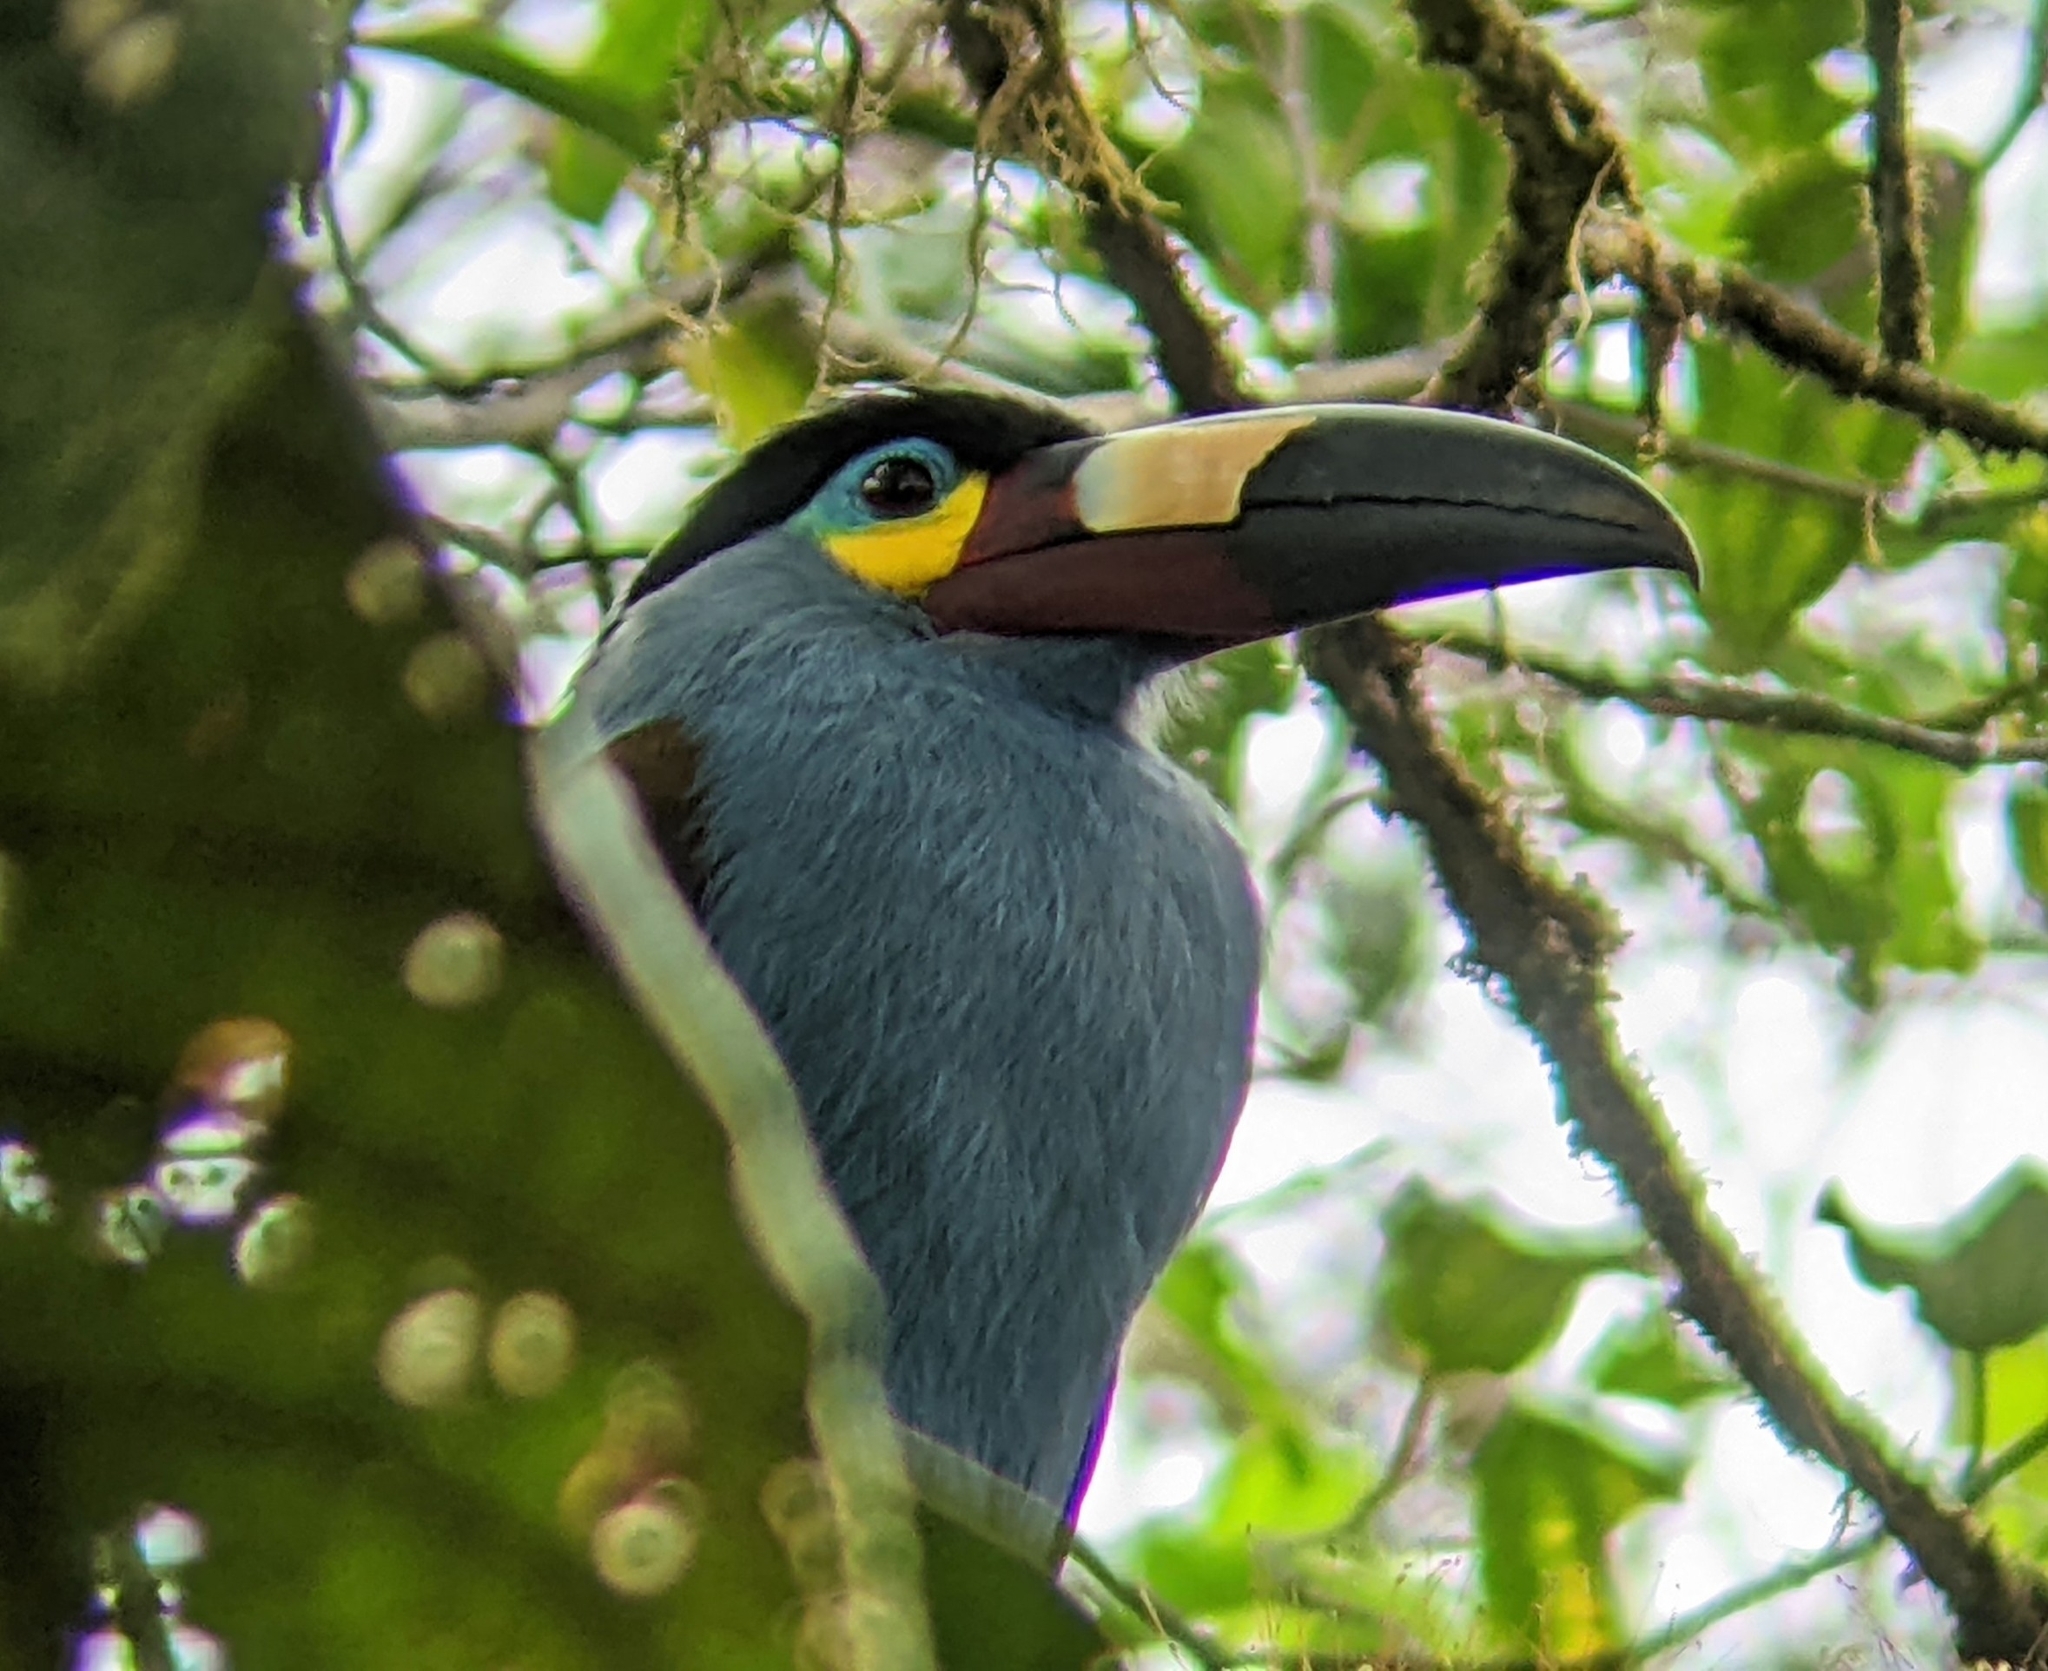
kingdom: Animalia
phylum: Chordata
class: Aves
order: Piciformes
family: Ramphastidae
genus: Andigena
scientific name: Andigena laminirostris
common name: Plate-billed mountain toucan
